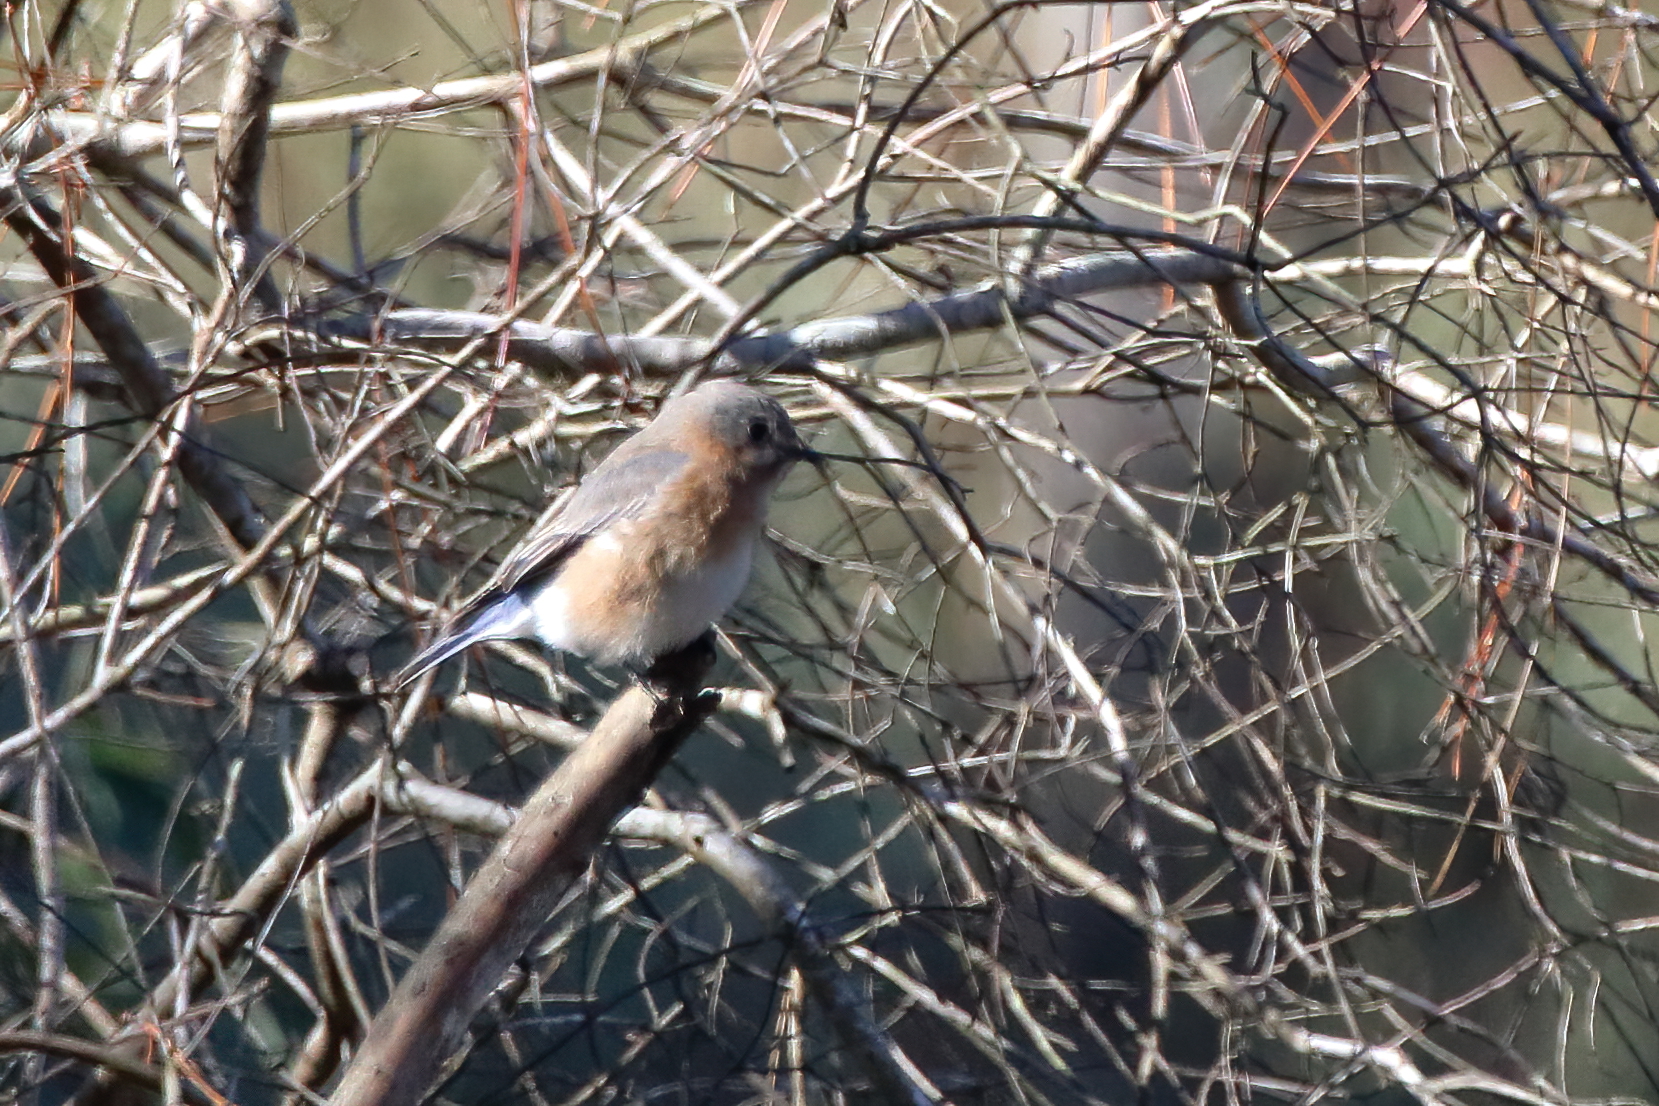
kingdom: Animalia
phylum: Chordata
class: Aves
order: Passeriformes
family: Turdidae
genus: Sialia
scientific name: Sialia sialis
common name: Eastern bluebird
